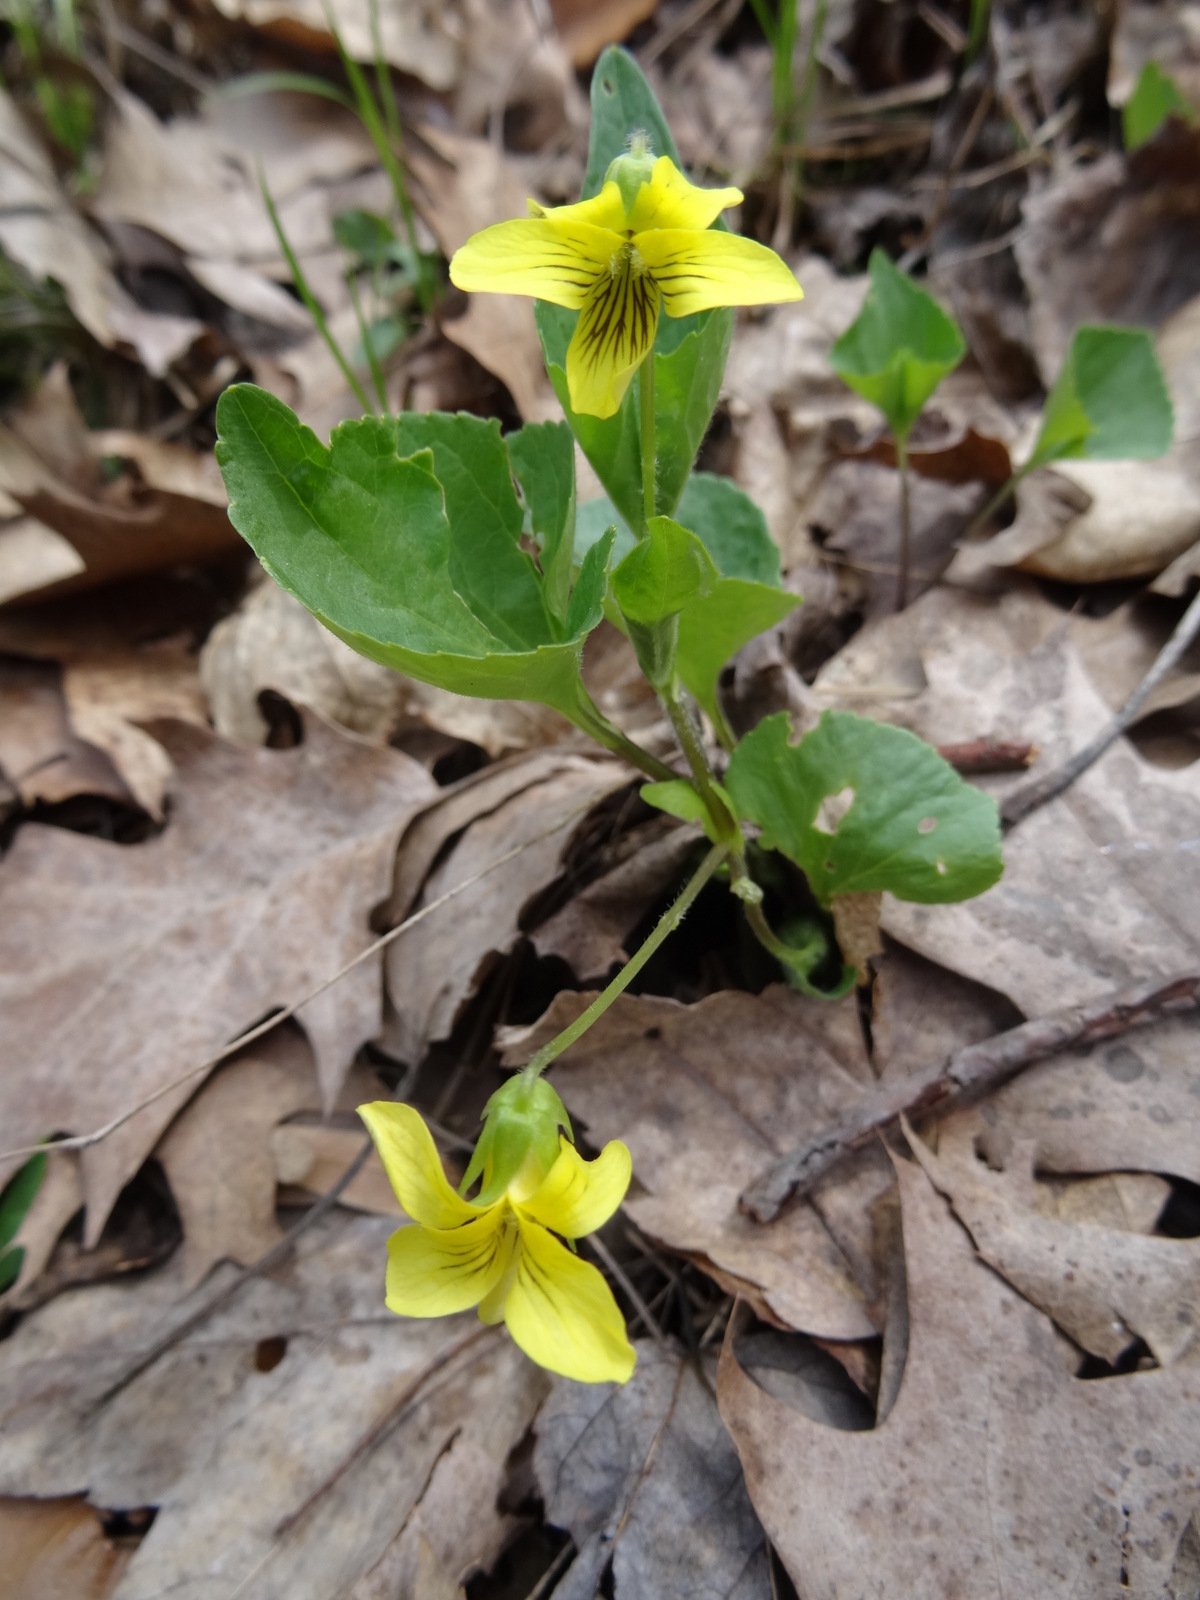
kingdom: Plantae
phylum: Tracheophyta
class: Magnoliopsida
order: Malpighiales
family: Violaceae
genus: Viola
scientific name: Viola eriocarpa
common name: Smooth yellow violet
